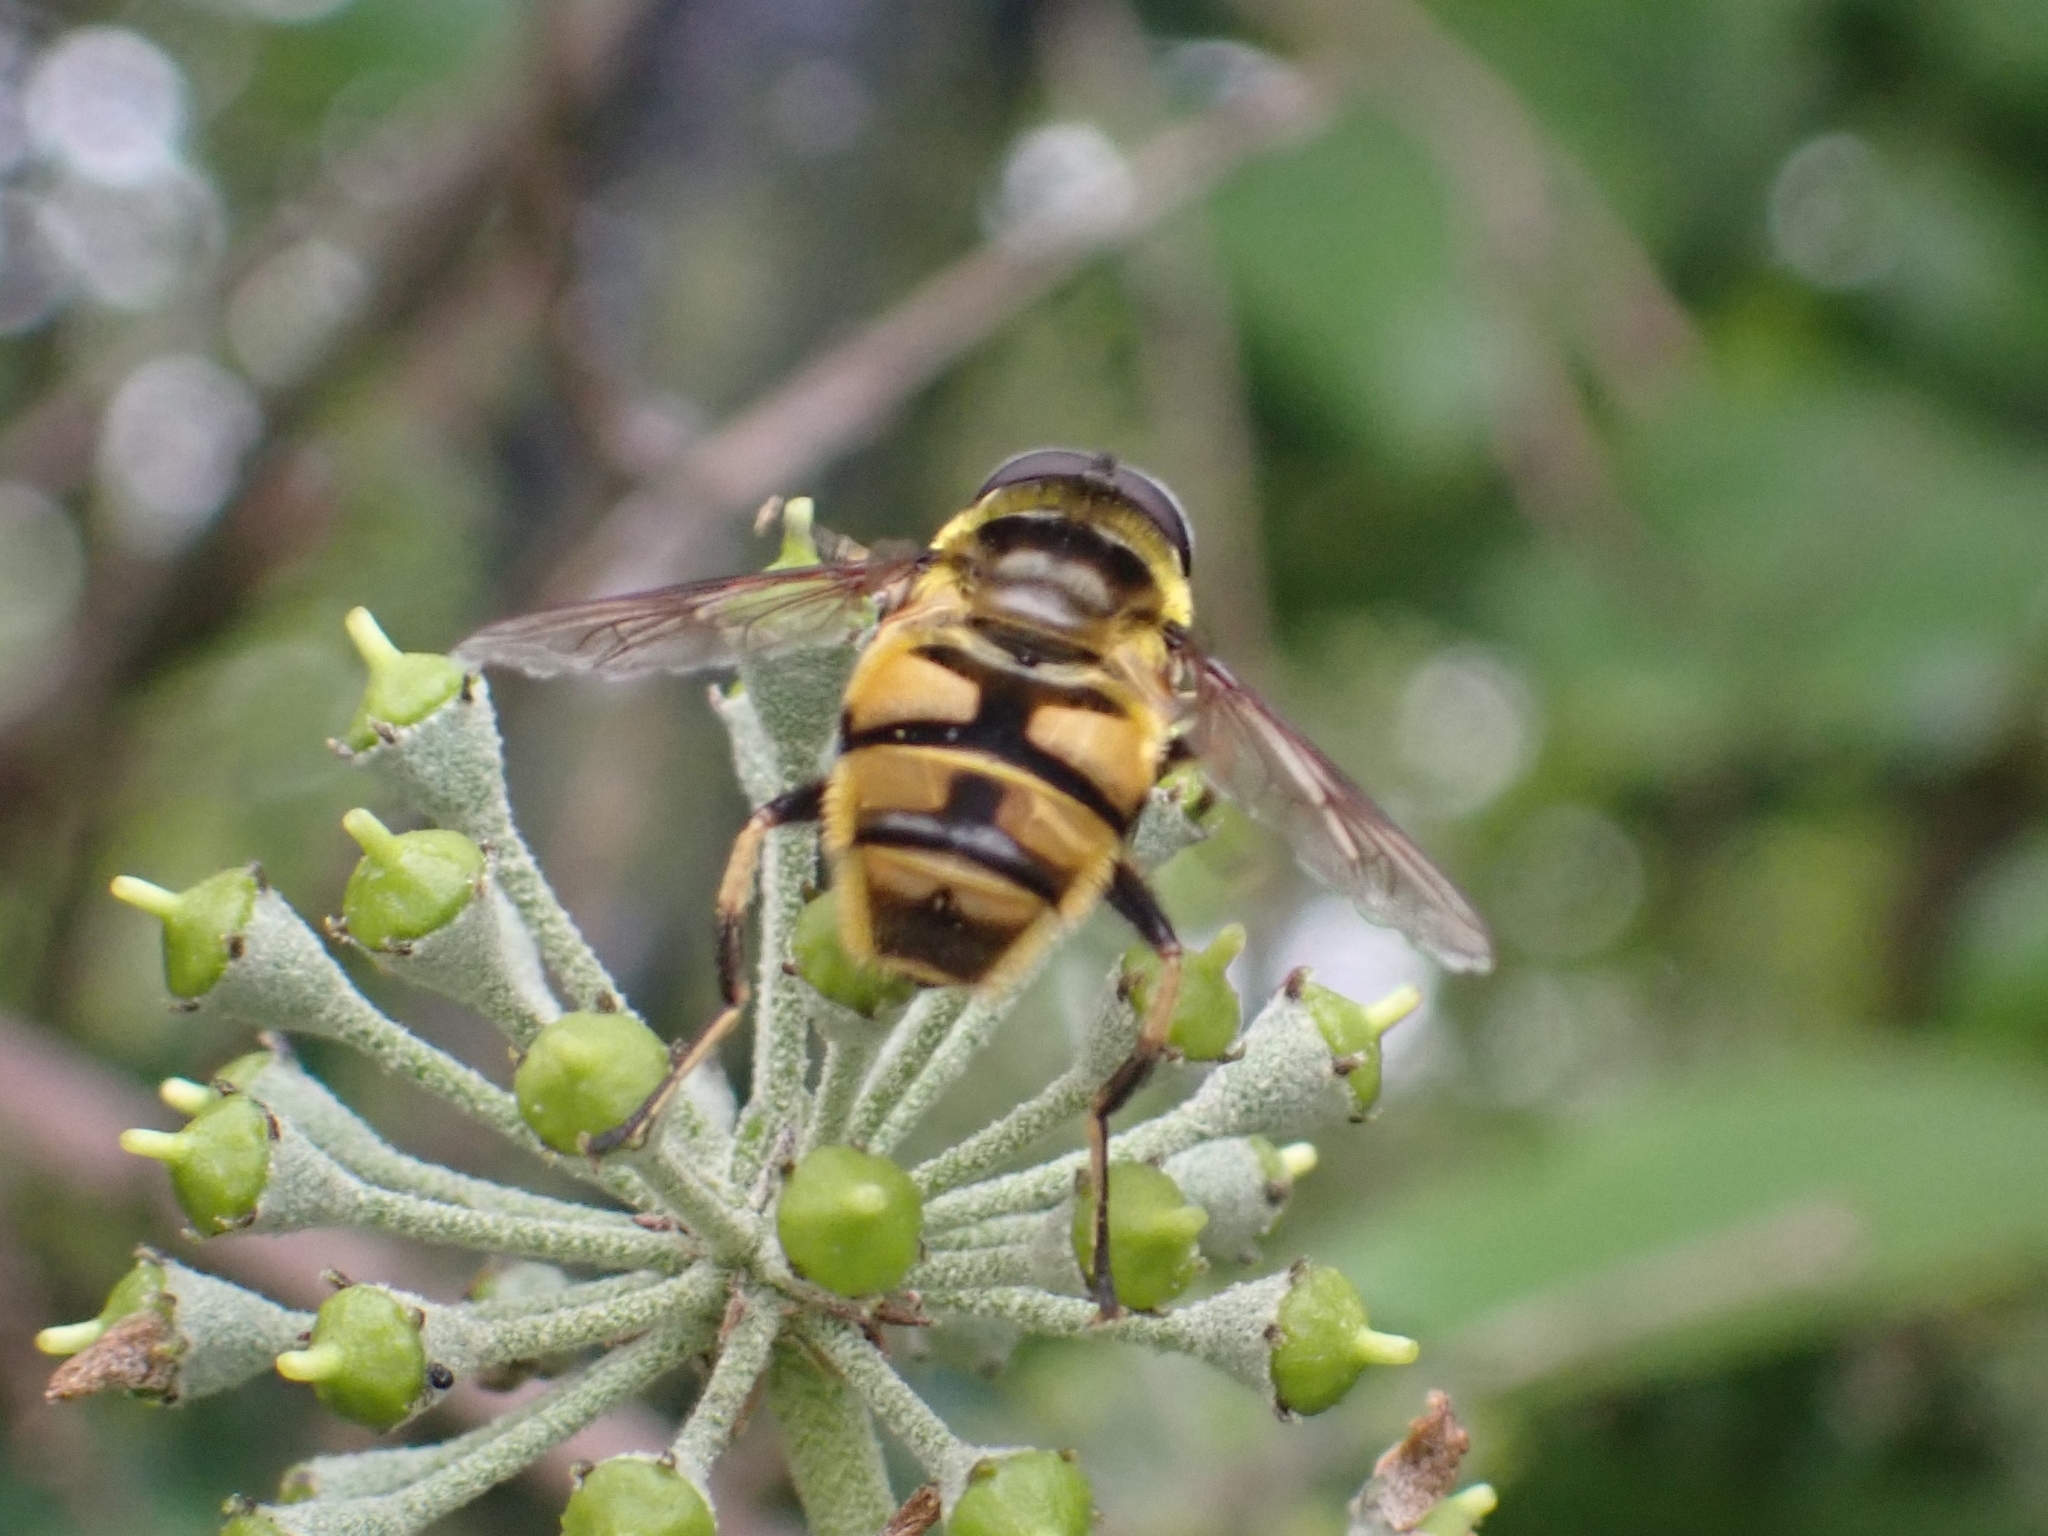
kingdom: Animalia
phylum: Arthropoda
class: Insecta
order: Diptera
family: Syrphidae
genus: Myathropa
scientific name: Myathropa florea
